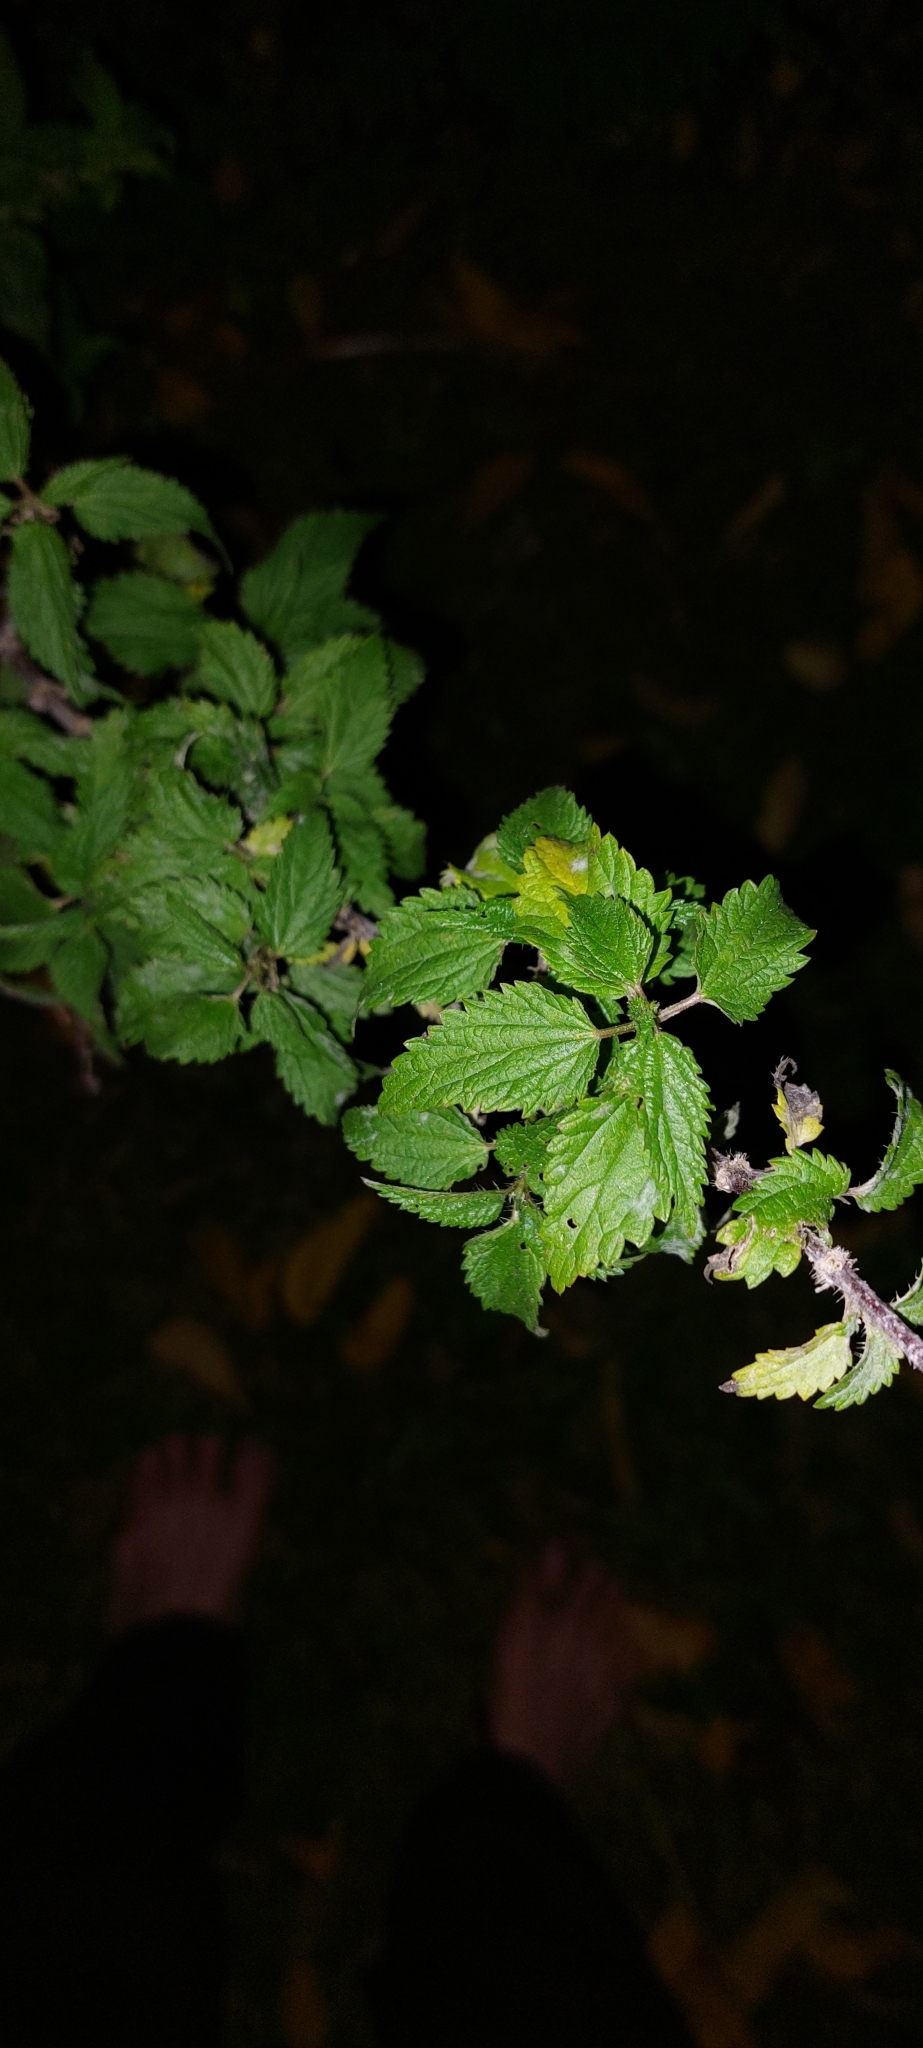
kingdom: Plantae
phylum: Tracheophyta
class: Magnoliopsida
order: Rosales
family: Urticaceae
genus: Urtica
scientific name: Urtica dioica
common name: Common nettle
